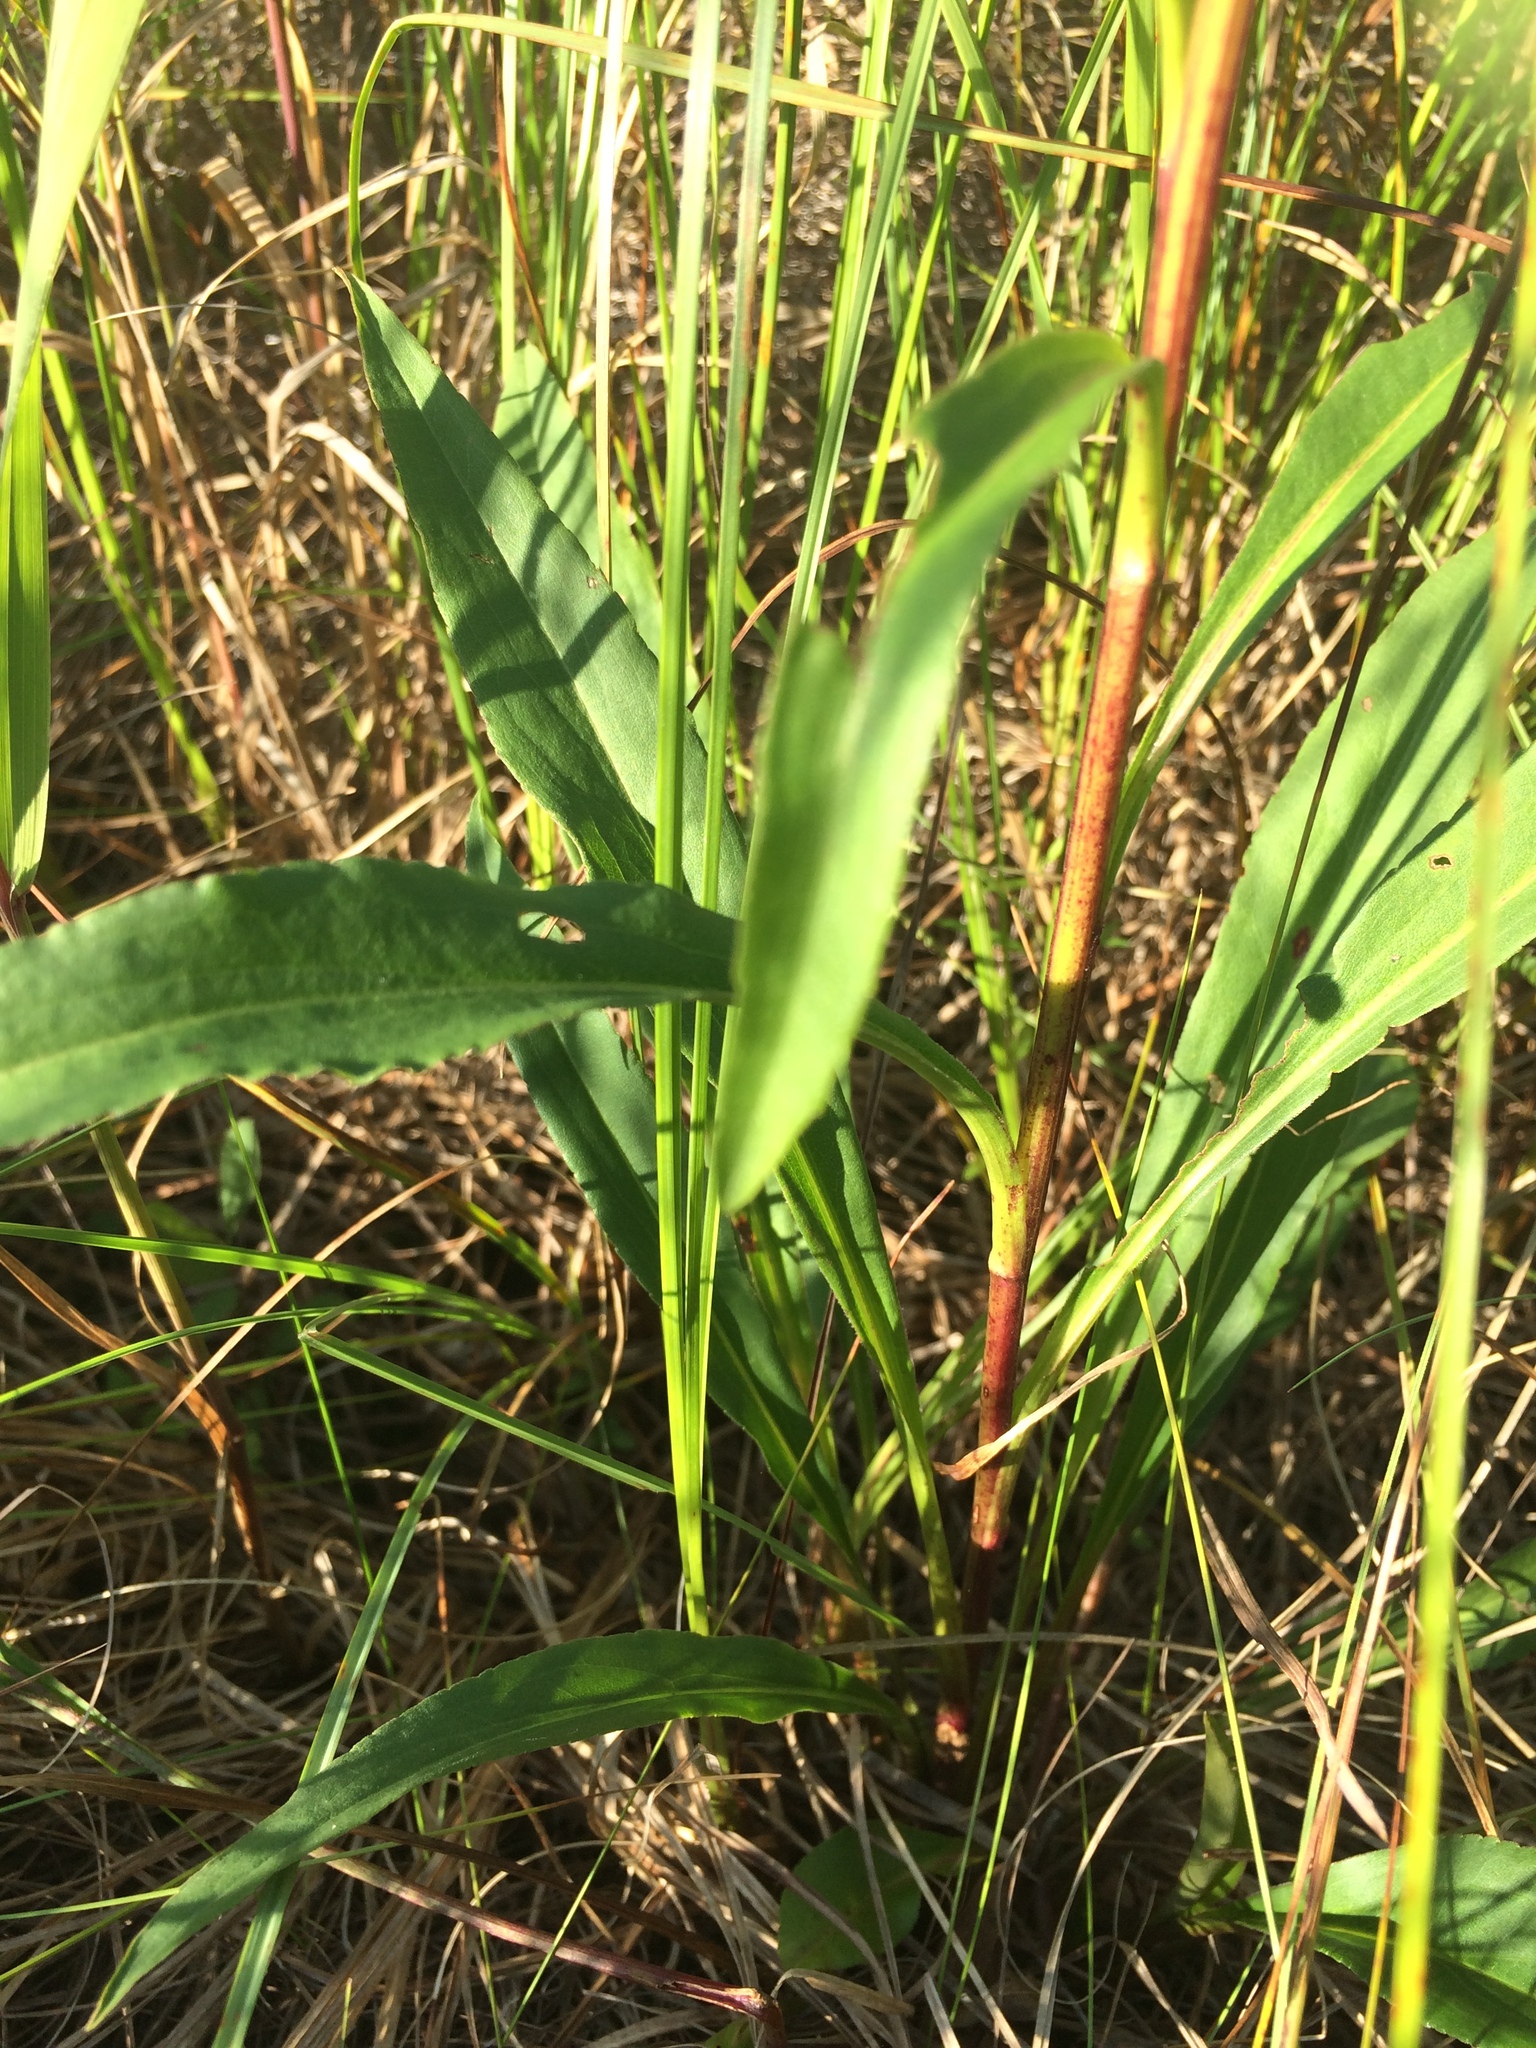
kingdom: Plantae
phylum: Tracheophyta
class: Magnoliopsida
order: Asterales
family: Asteraceae
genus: Solidago
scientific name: Solidago uliginosa
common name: Bog goldenrod
